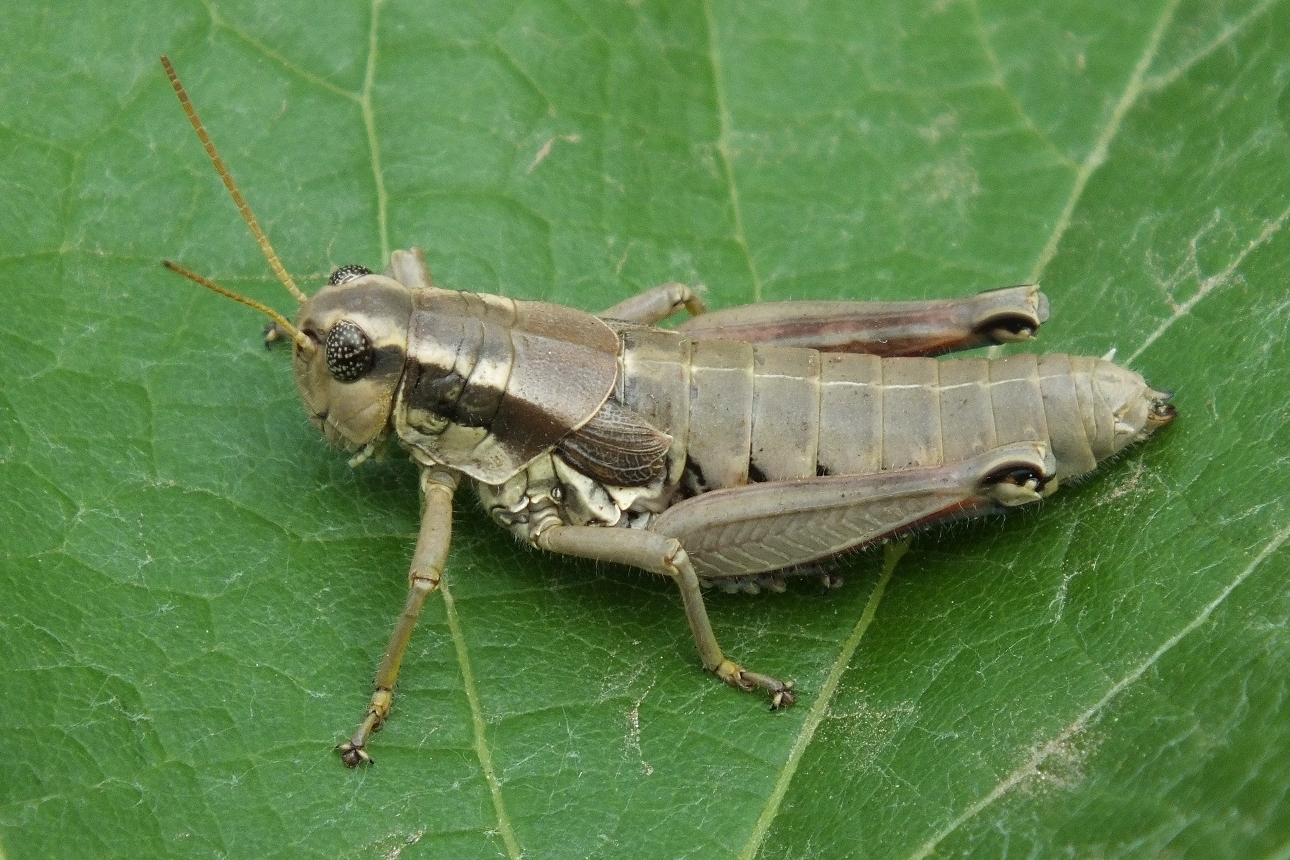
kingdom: Animalia
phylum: Arthropoda
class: Insecta
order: Orthoptera
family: Acrididae
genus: Podisma
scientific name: Podisma pedestris
